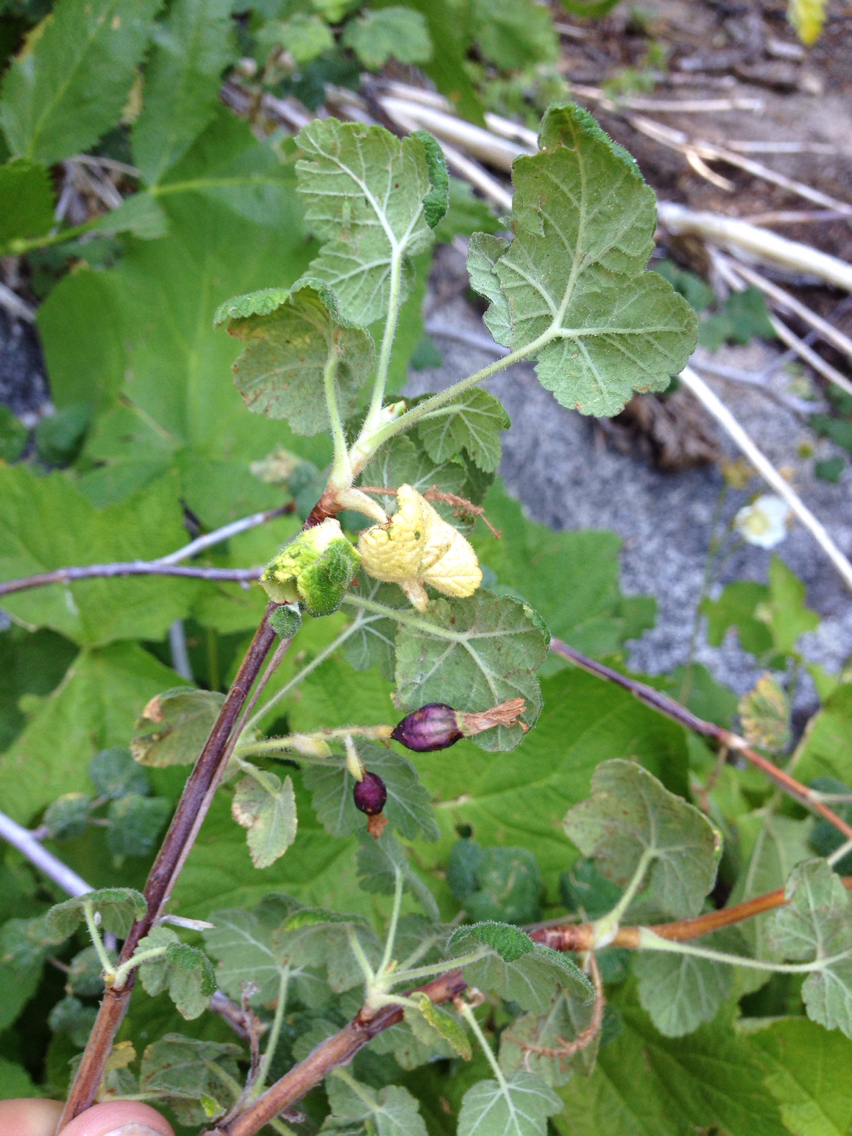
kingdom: Plantae
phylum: Tracheophyta
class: Magnoliopsida
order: Saxifragales
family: Grossulariaceae
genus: Ribes
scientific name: Ribes viscosissimum
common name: Sticky currant
